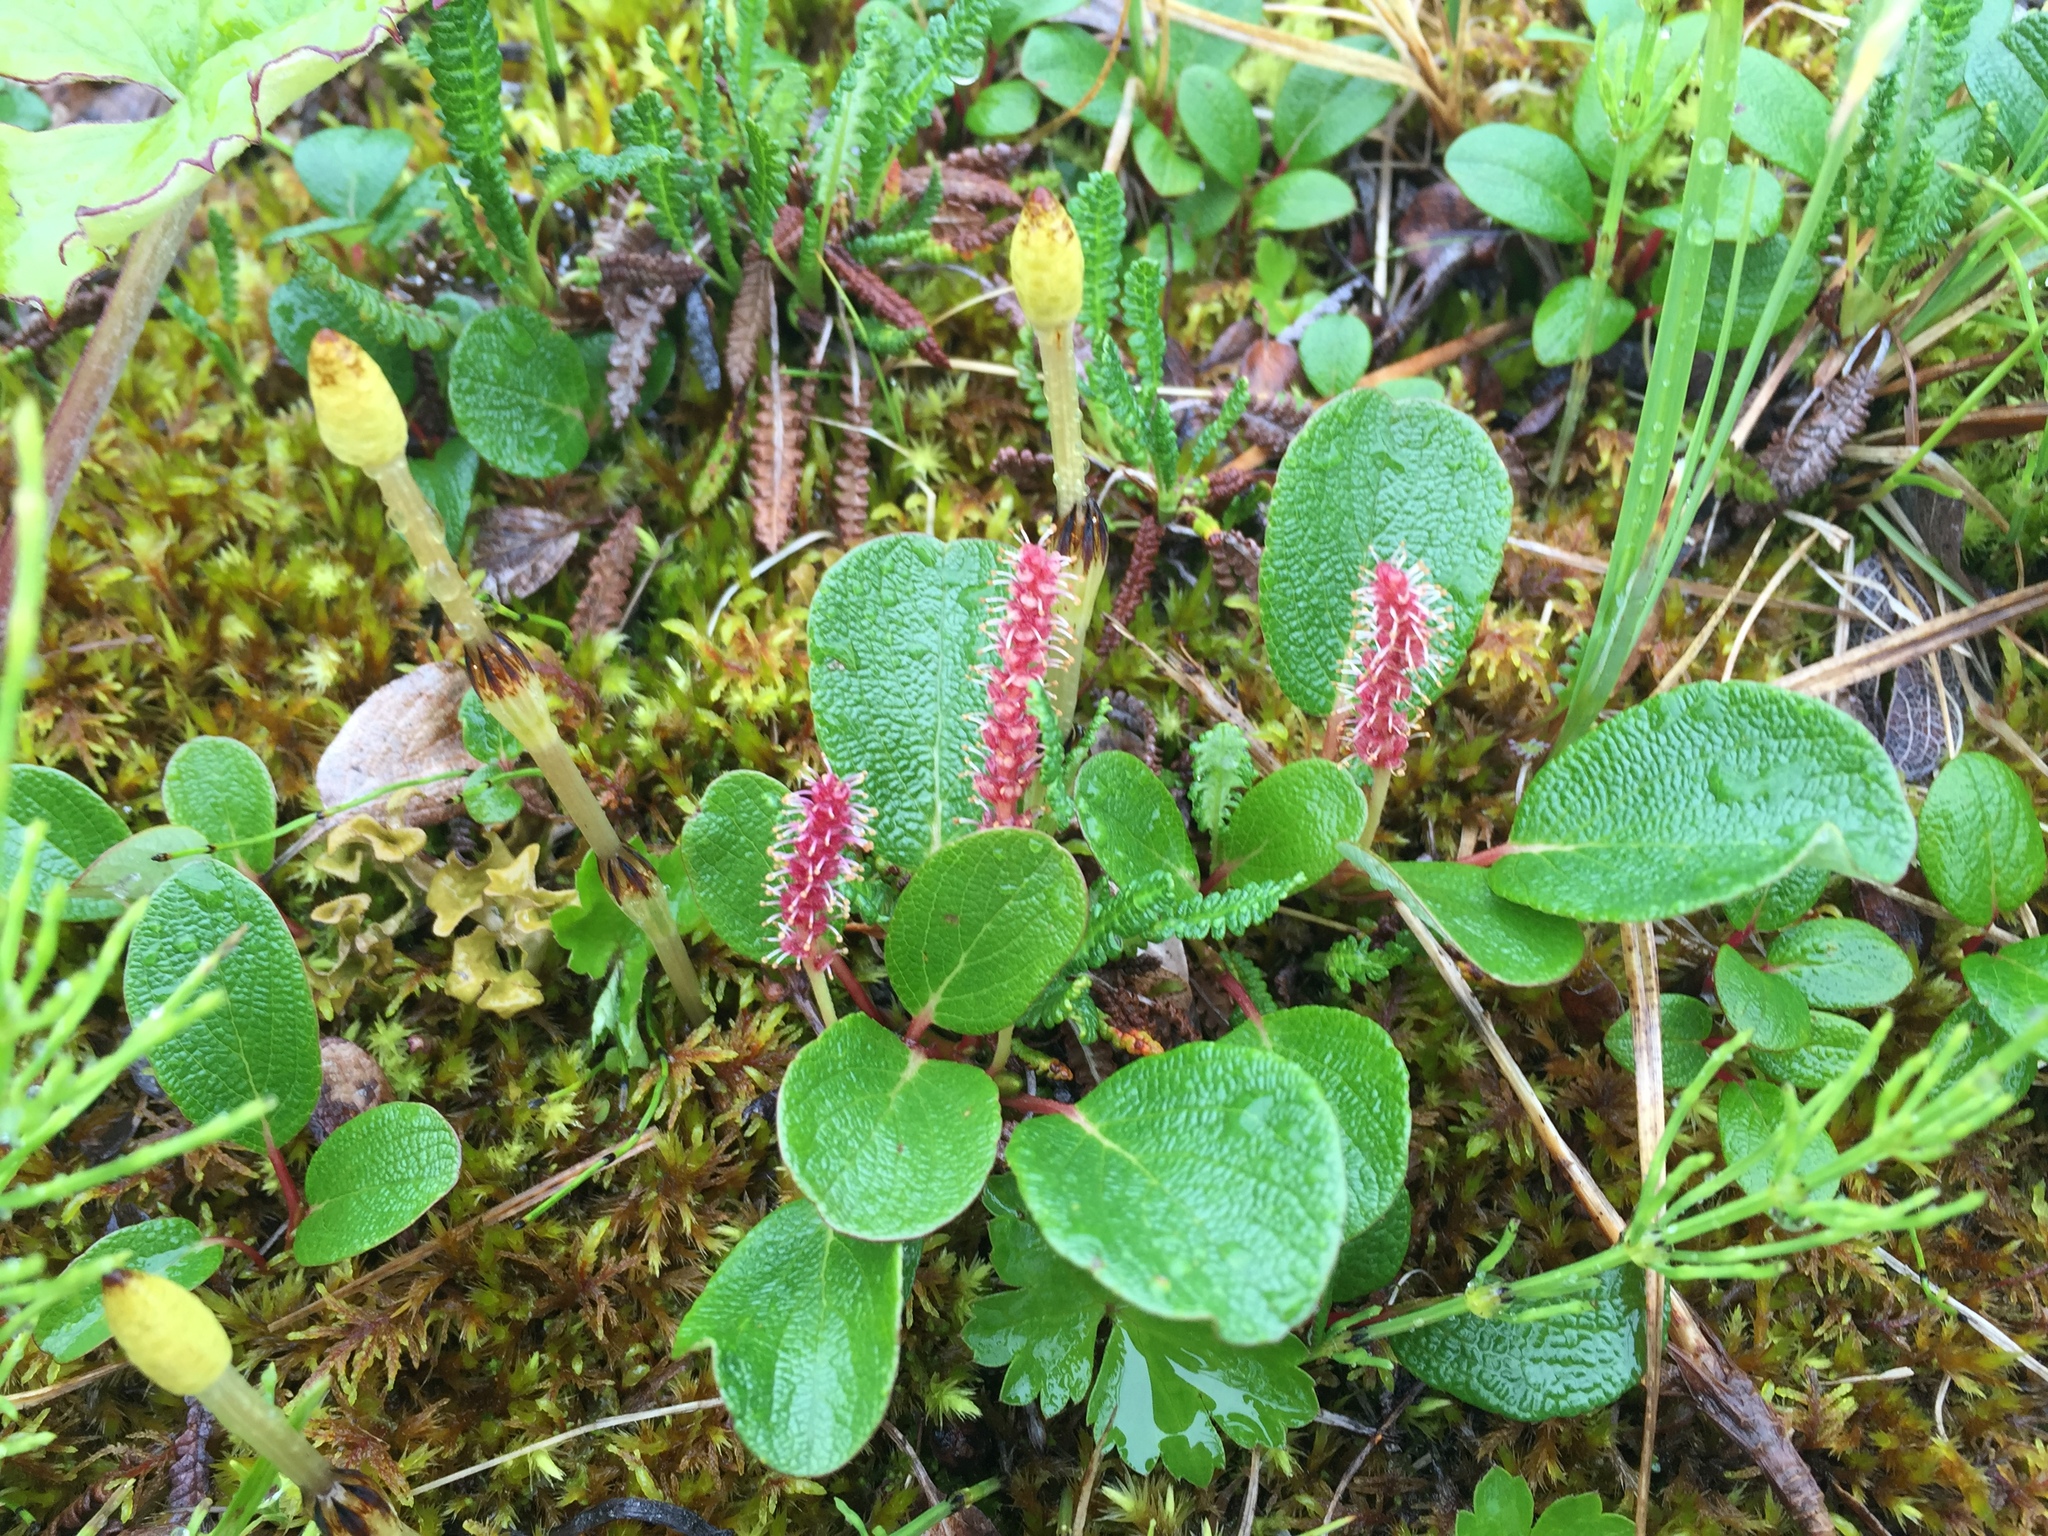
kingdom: Plantae
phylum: Tracheophyta
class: Magnoliopsida
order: Malpighiales
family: Salicaceae
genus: Salix
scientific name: Salix reticulata
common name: Net-leaved willow
